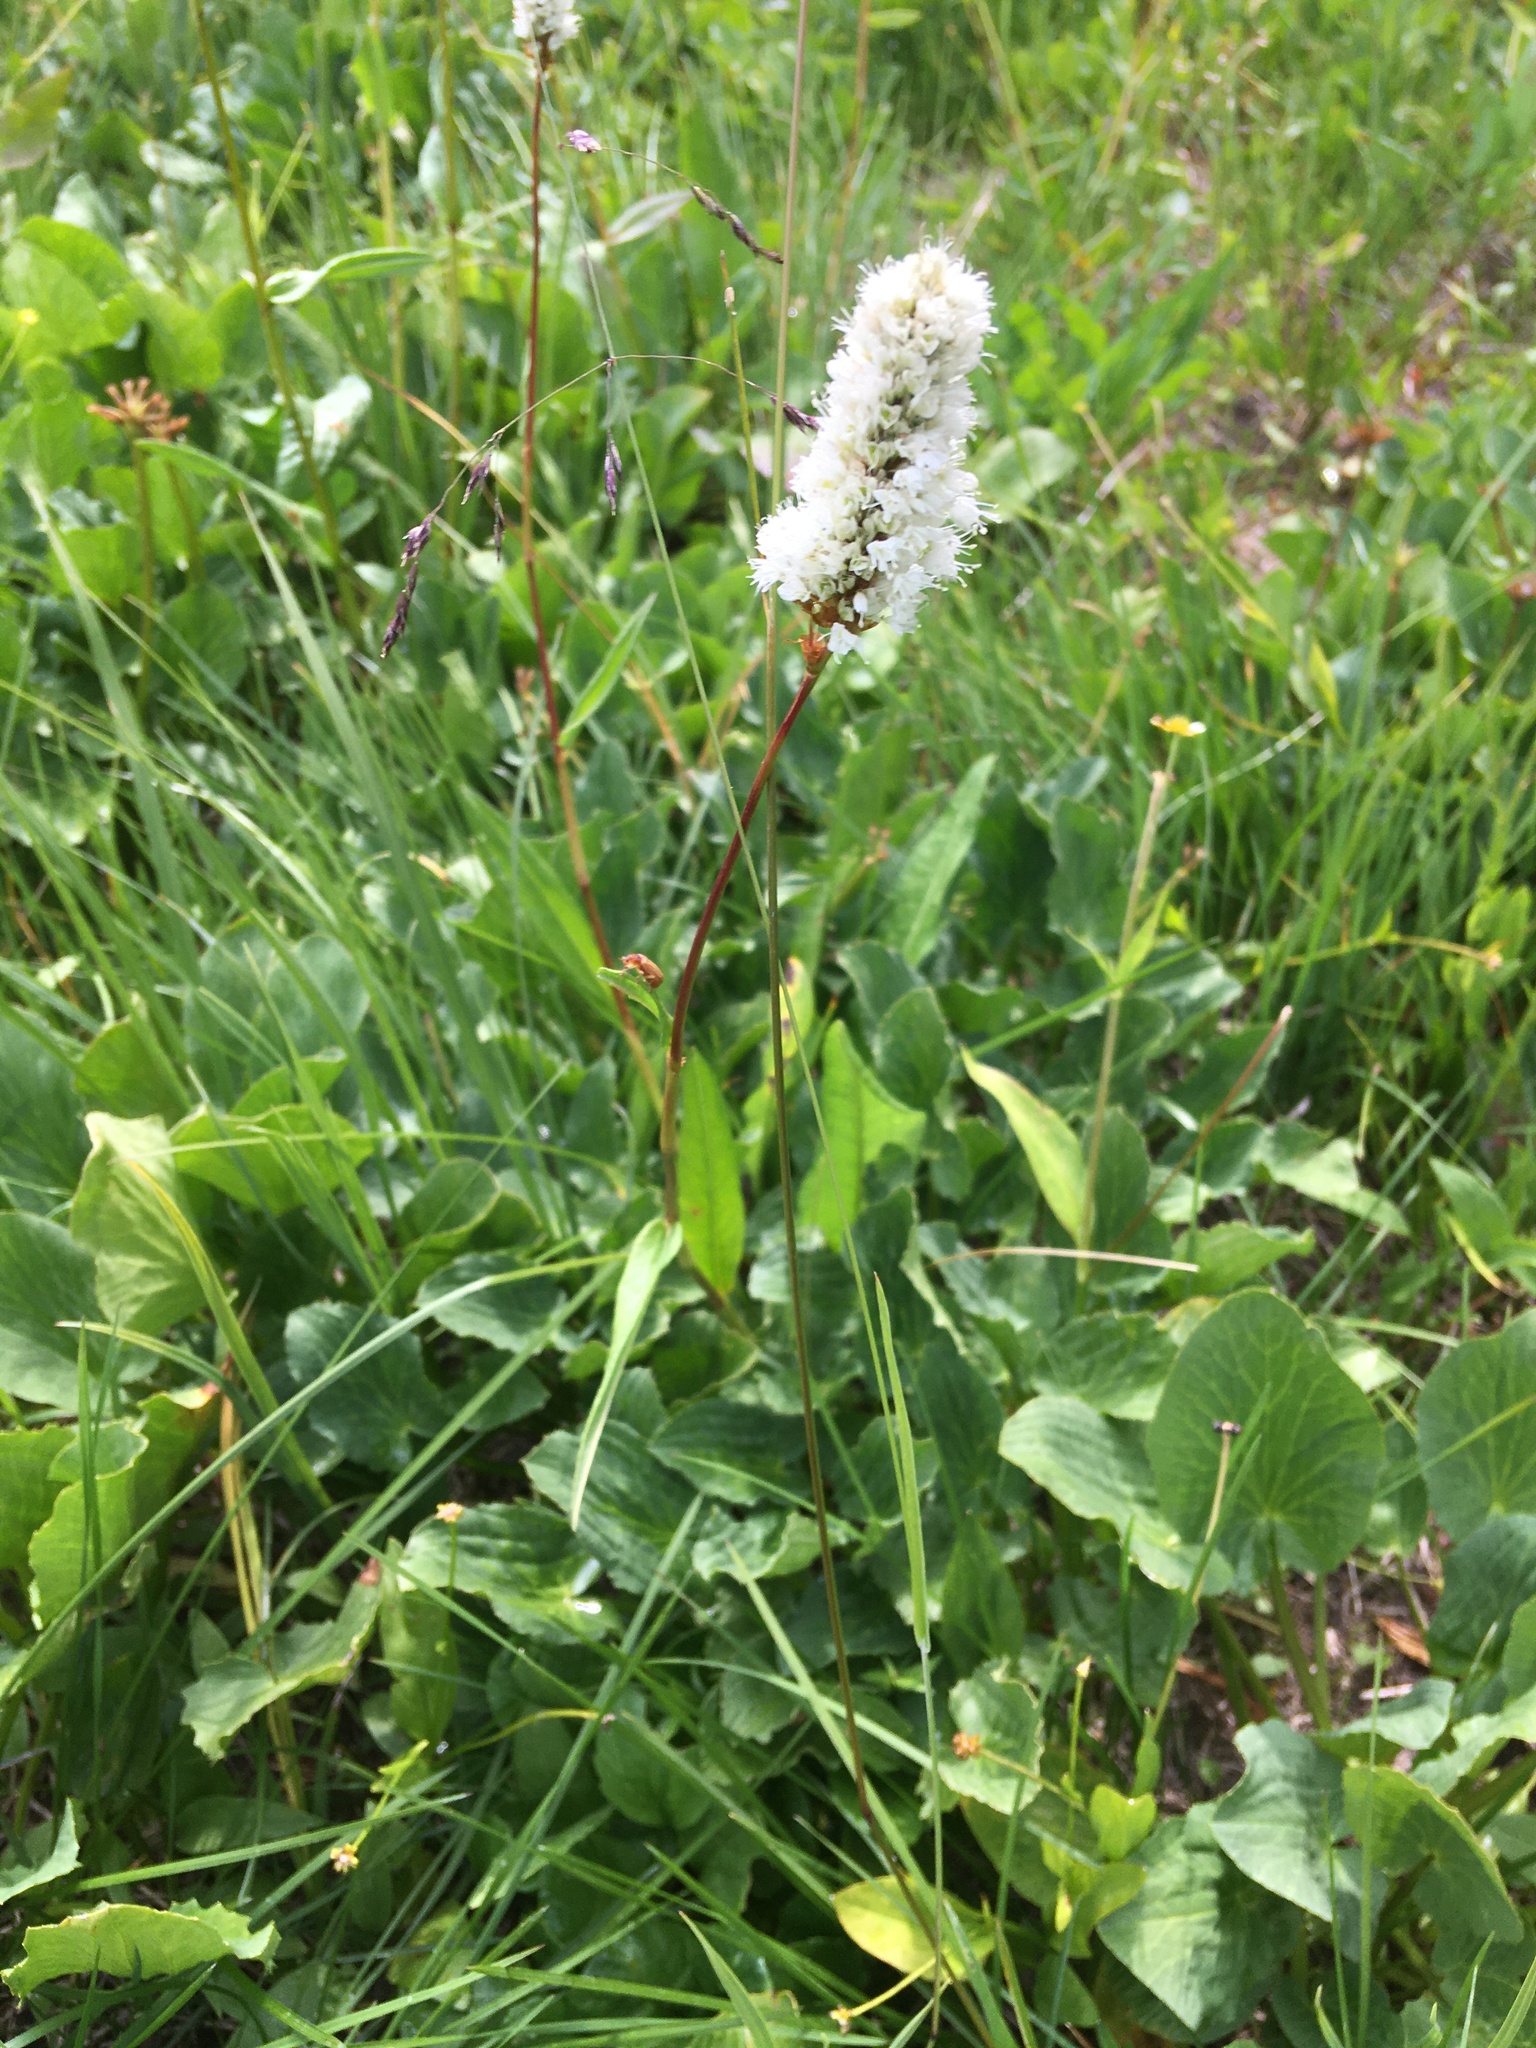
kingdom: Plantae
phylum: Tracheophyta
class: Magnoliopsida
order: Caryophyllales
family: Polygonaceae
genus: Bistorta
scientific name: Bistorta bistortoides
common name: American bistort
